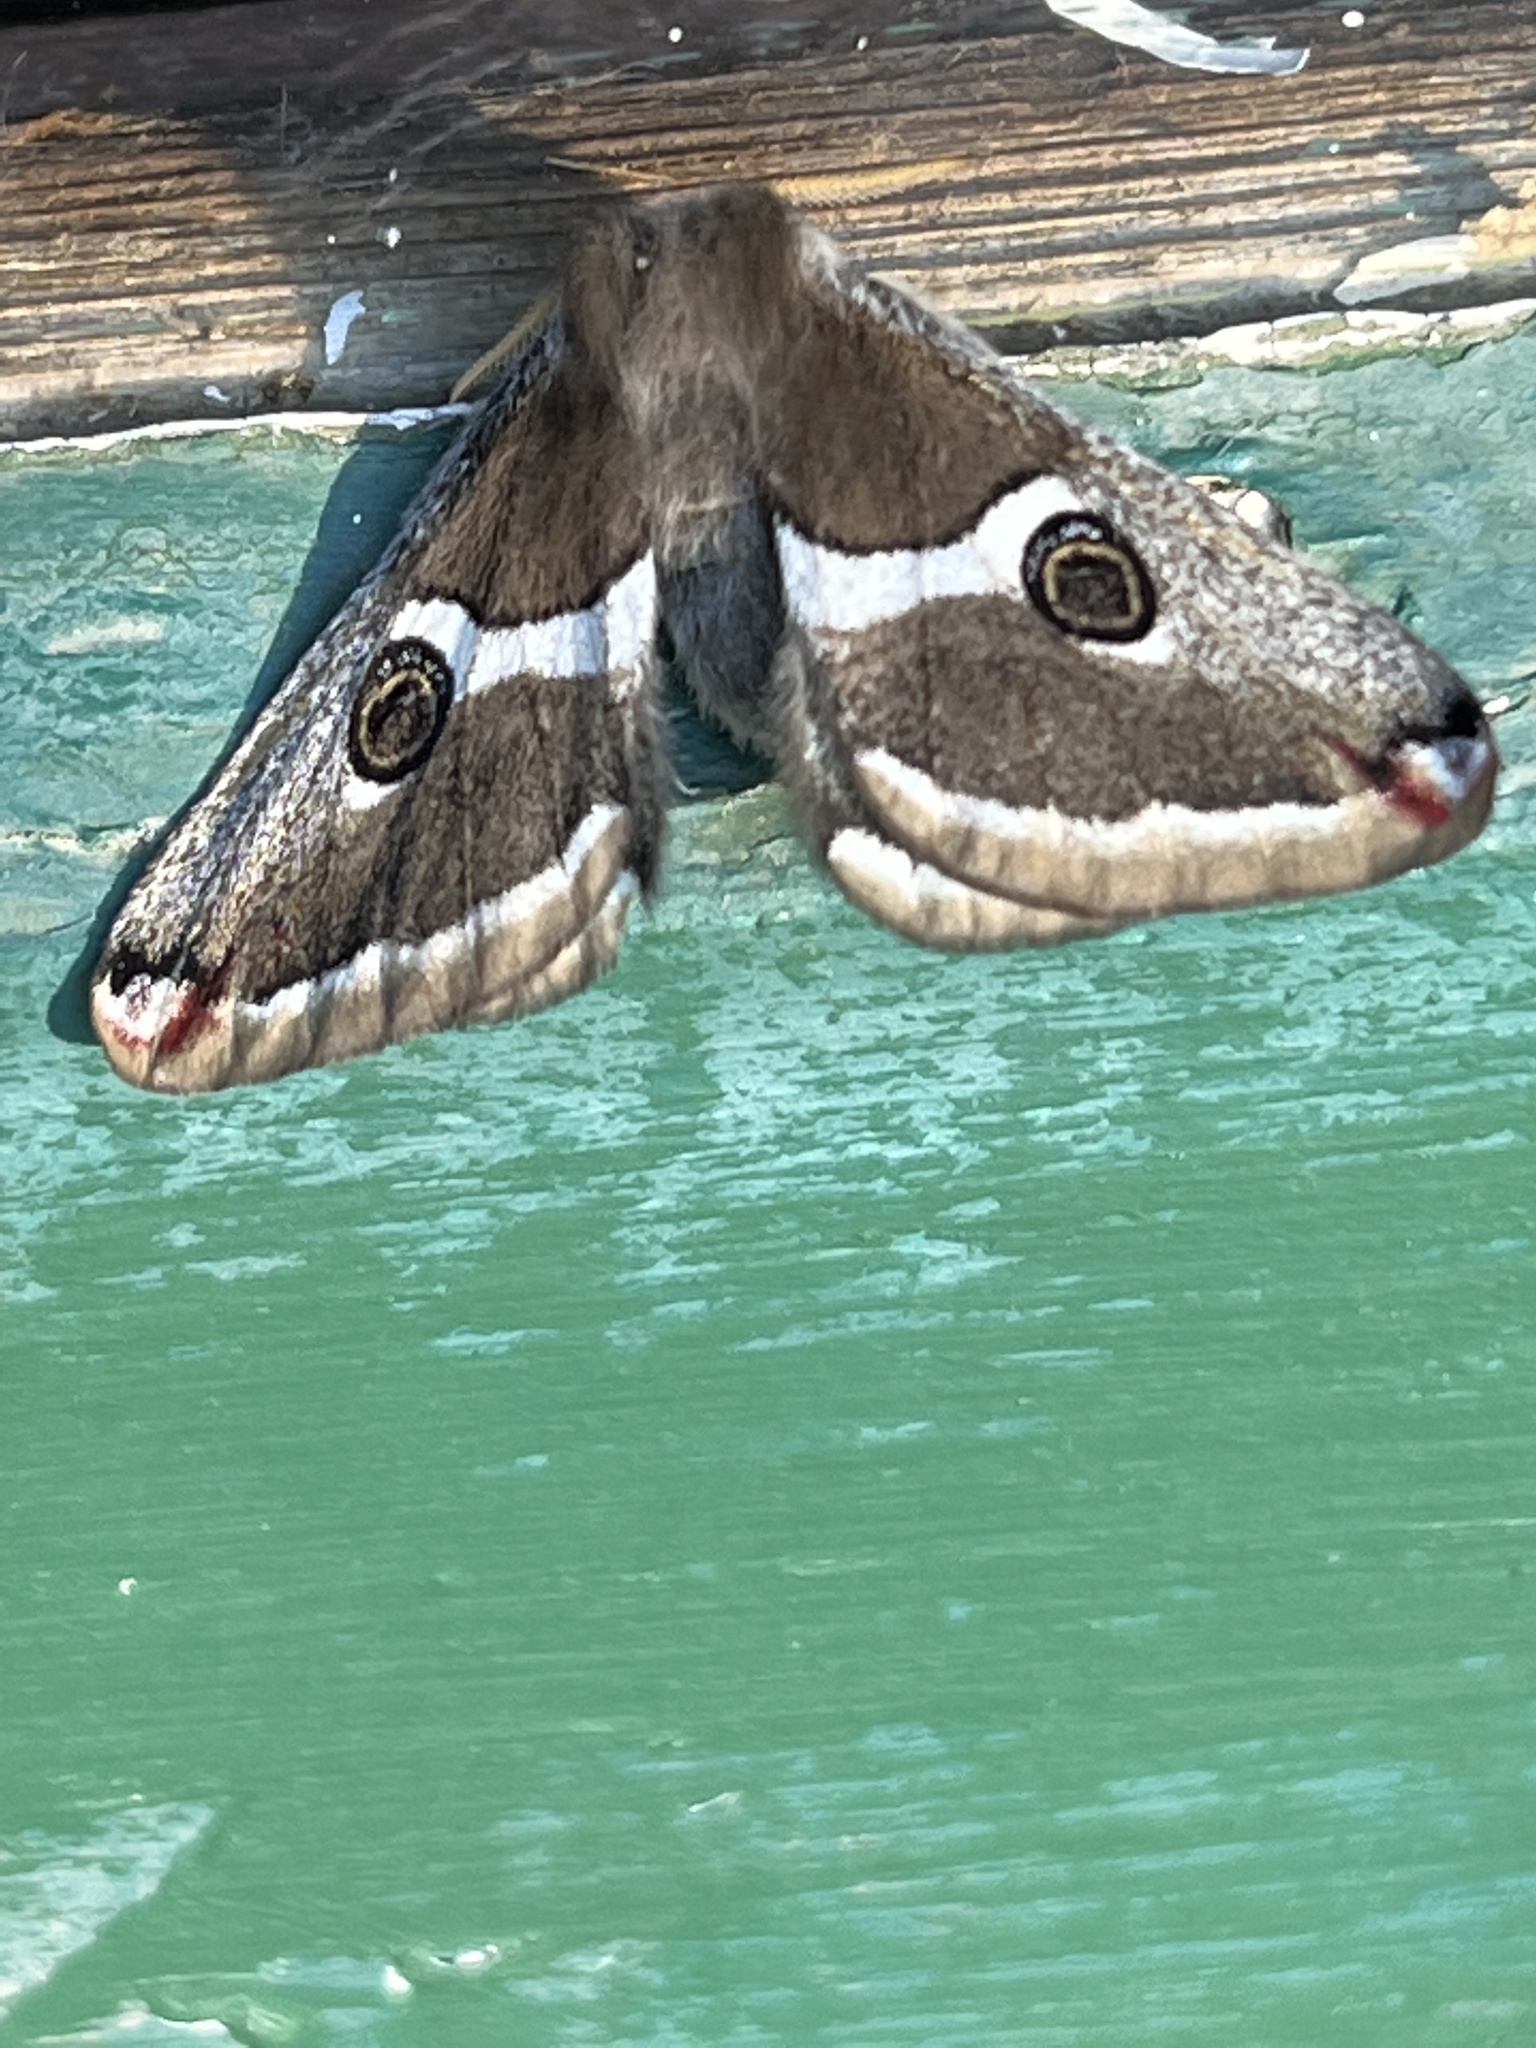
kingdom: Animalia
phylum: Arthropoda
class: Insecta
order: Lepidoptera
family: Saturniidae
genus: Saturnia
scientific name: Saturnia albofasciata
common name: White-streaked saturnia moth
